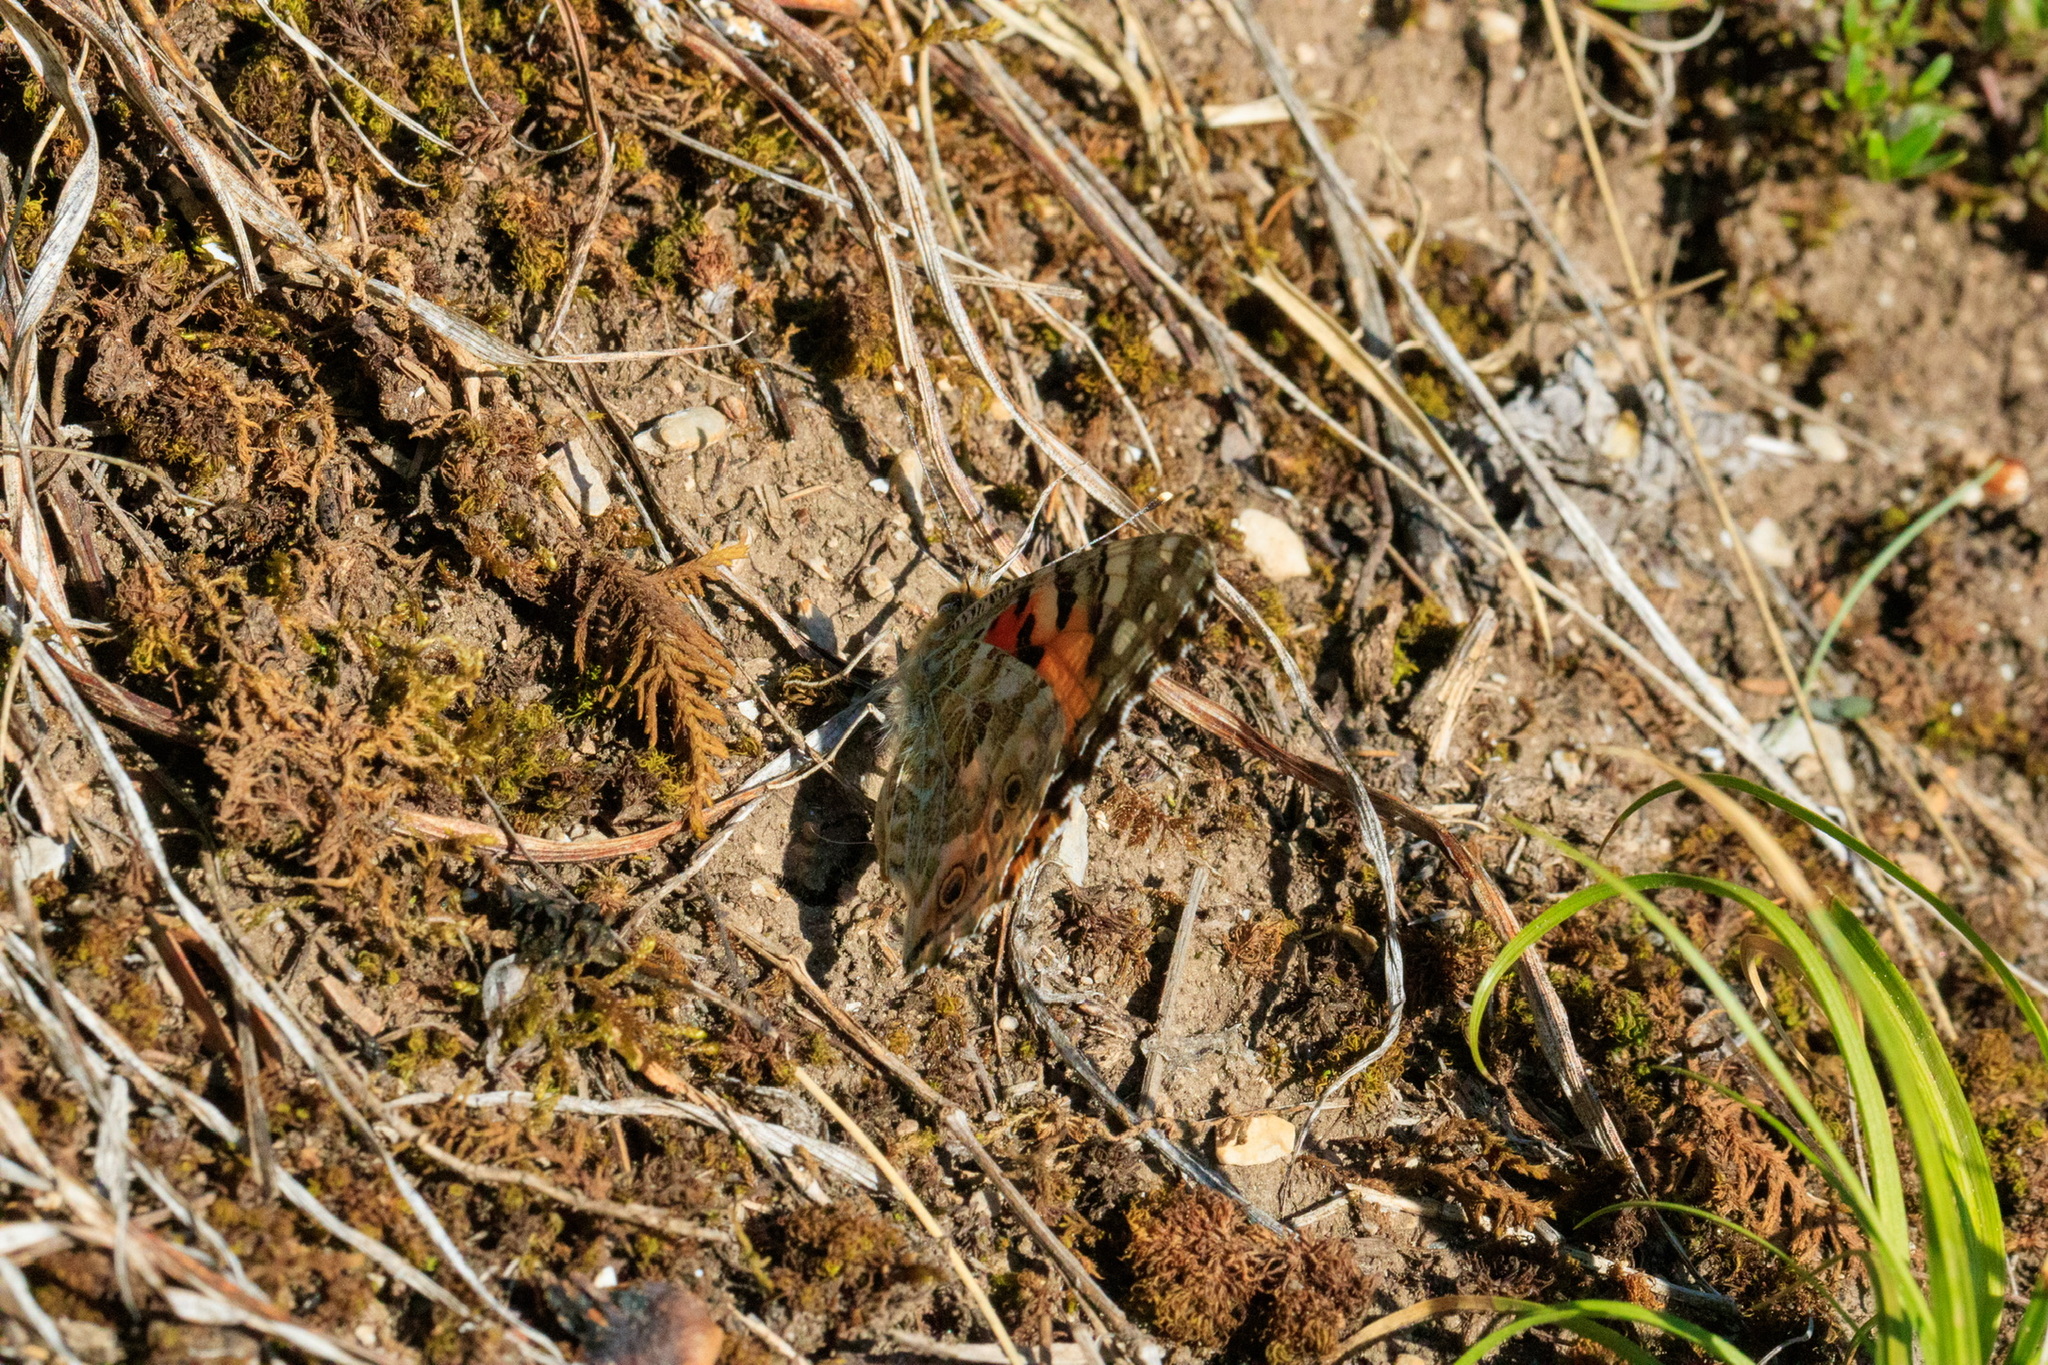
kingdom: Animalia
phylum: Arthropoda
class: Insecta
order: Lepidoptera
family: Nymphalidae
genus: Vanessa
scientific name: Vanessa cardui
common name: Painted lady
